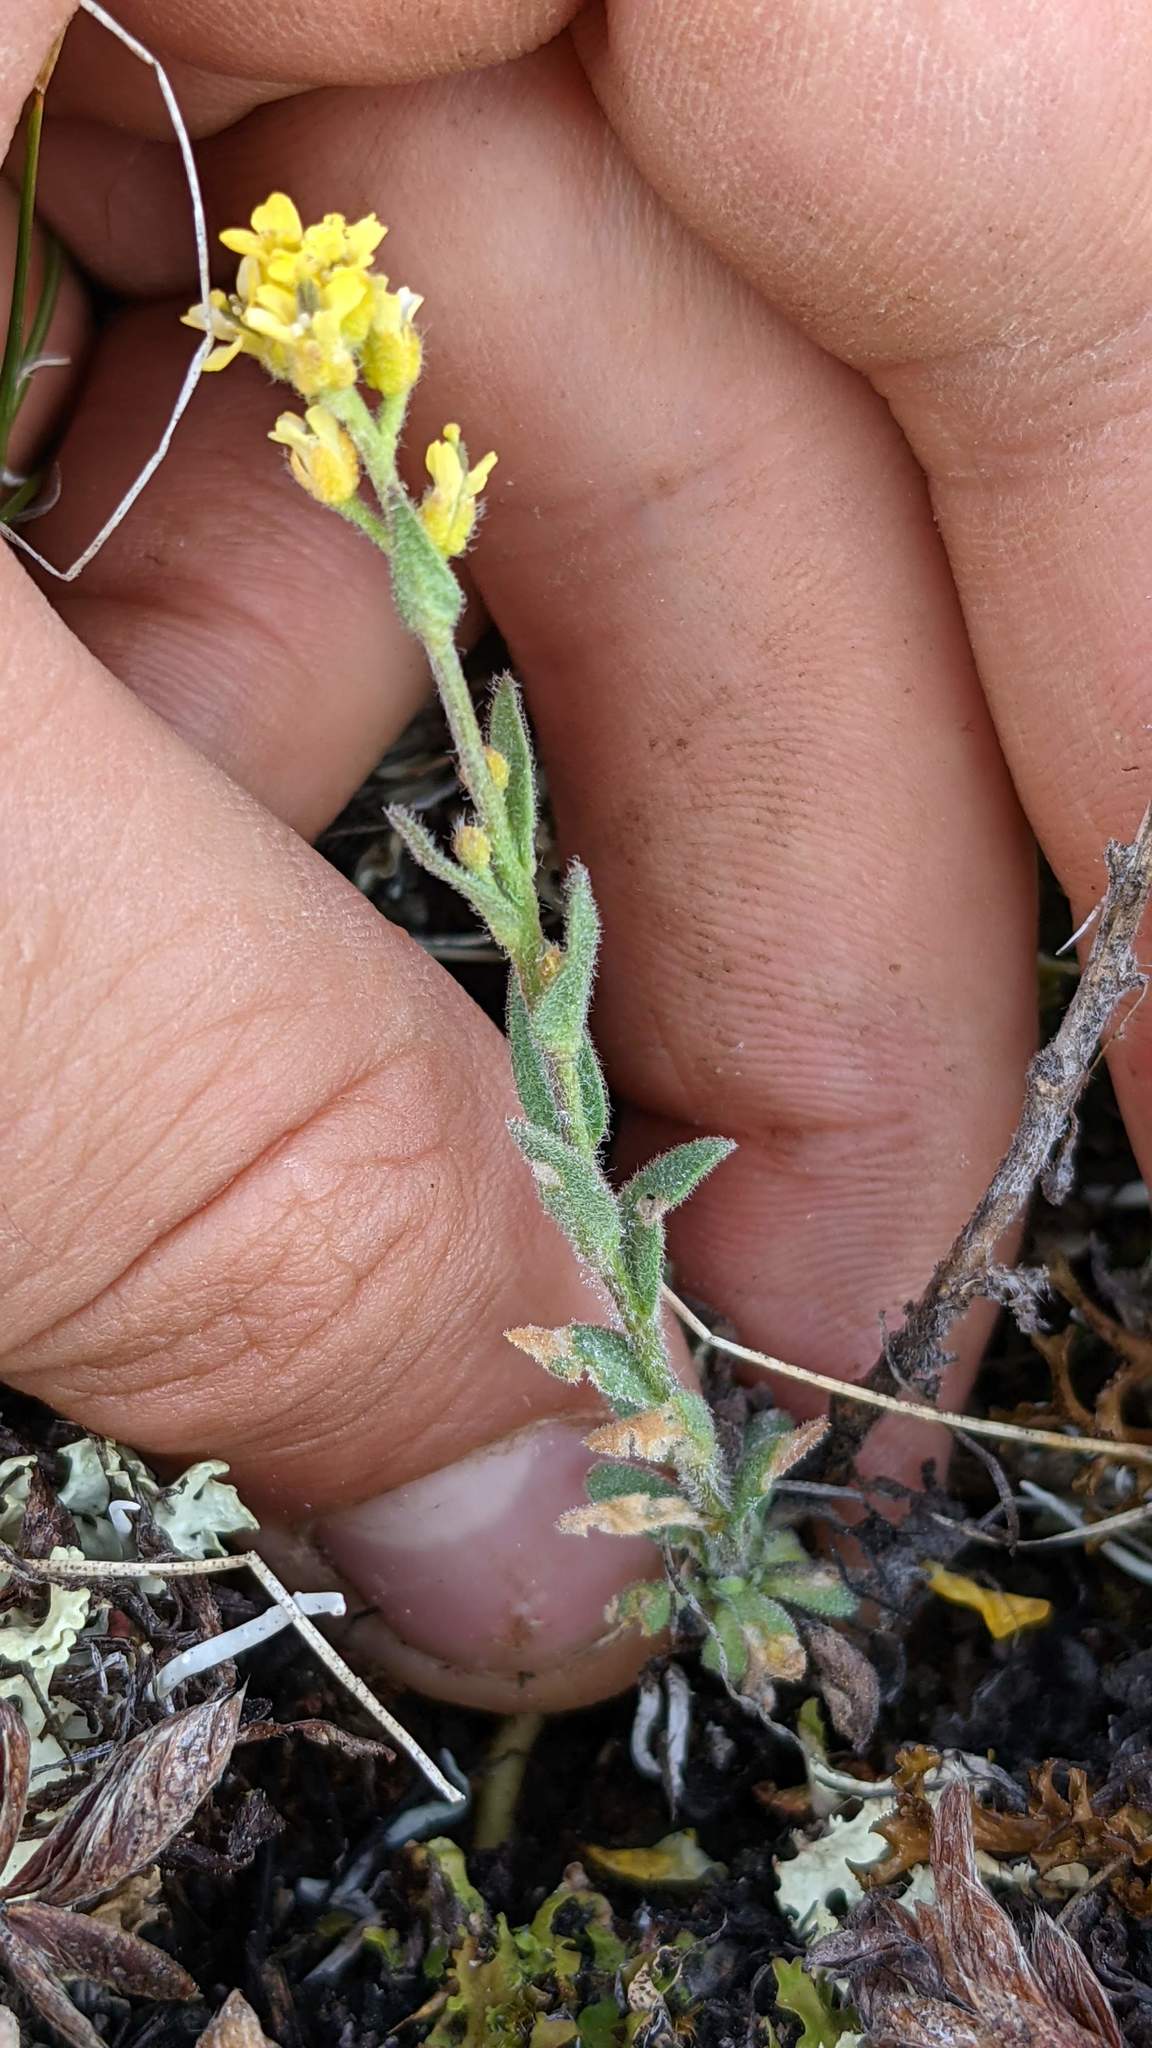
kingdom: Plantae
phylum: Tracheophyta
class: Magnoliopsida
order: Brassicales
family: Brassicaceae
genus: Draba
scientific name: Draba aurea
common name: Golden draba
